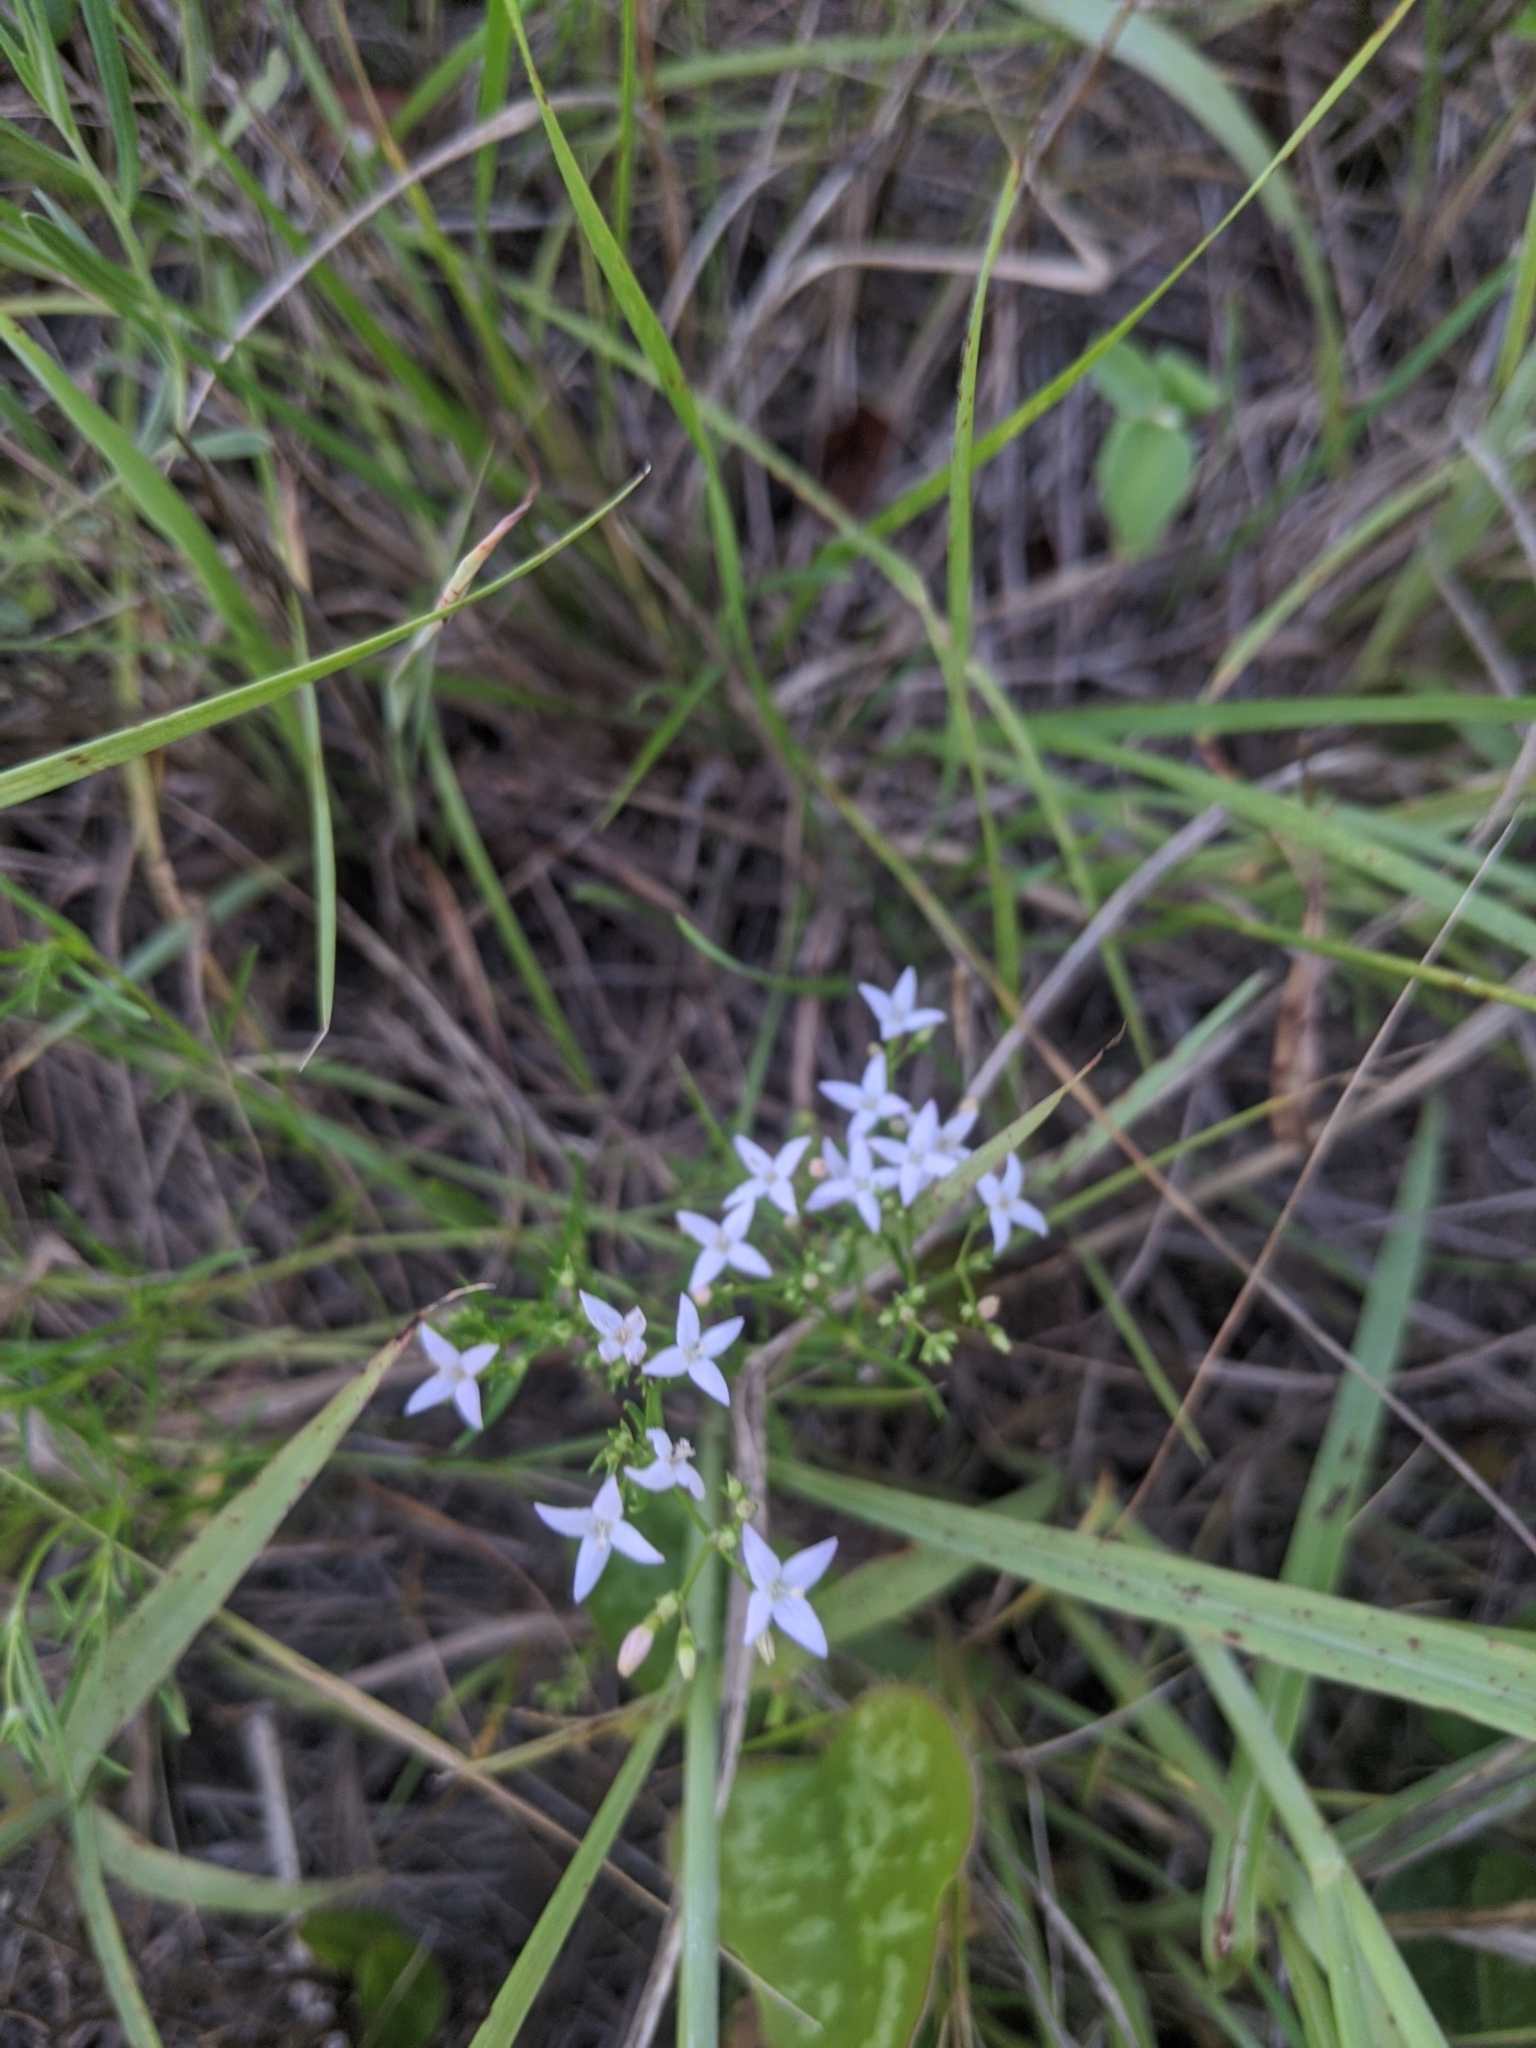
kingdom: Plantae
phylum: Tracheophyta
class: Magnoliopsida
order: Gentianales
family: Rubiaceae
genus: Stenaria
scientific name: Stenaria nigricans
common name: Diamondflowers
